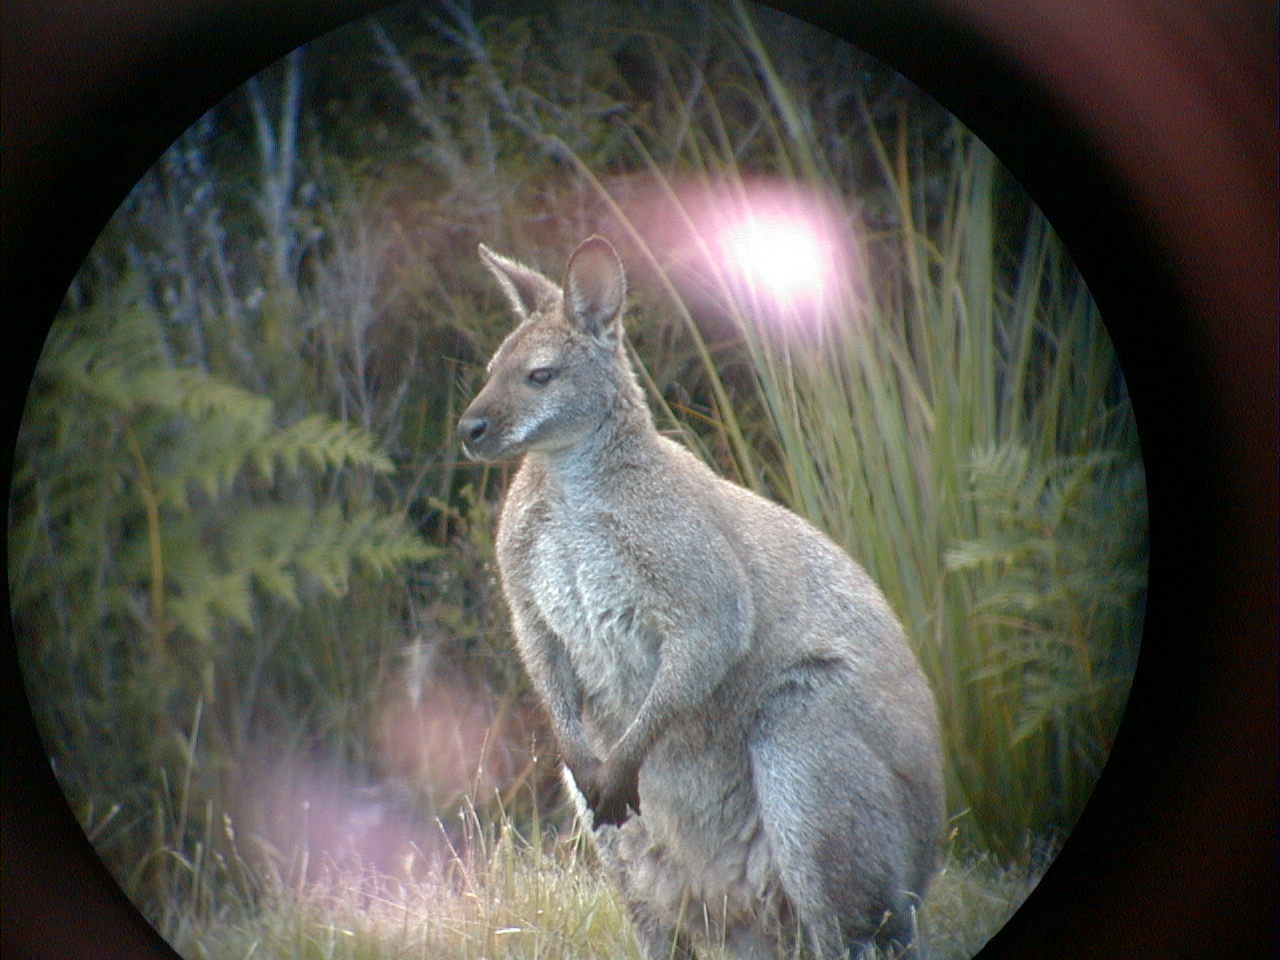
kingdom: Animalia
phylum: Chordata
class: Mammalia
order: Diprotodontia
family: Macropodidae
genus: Notamacropus
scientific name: Notamacropus rufogriseus
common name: Red-necked wallaby
